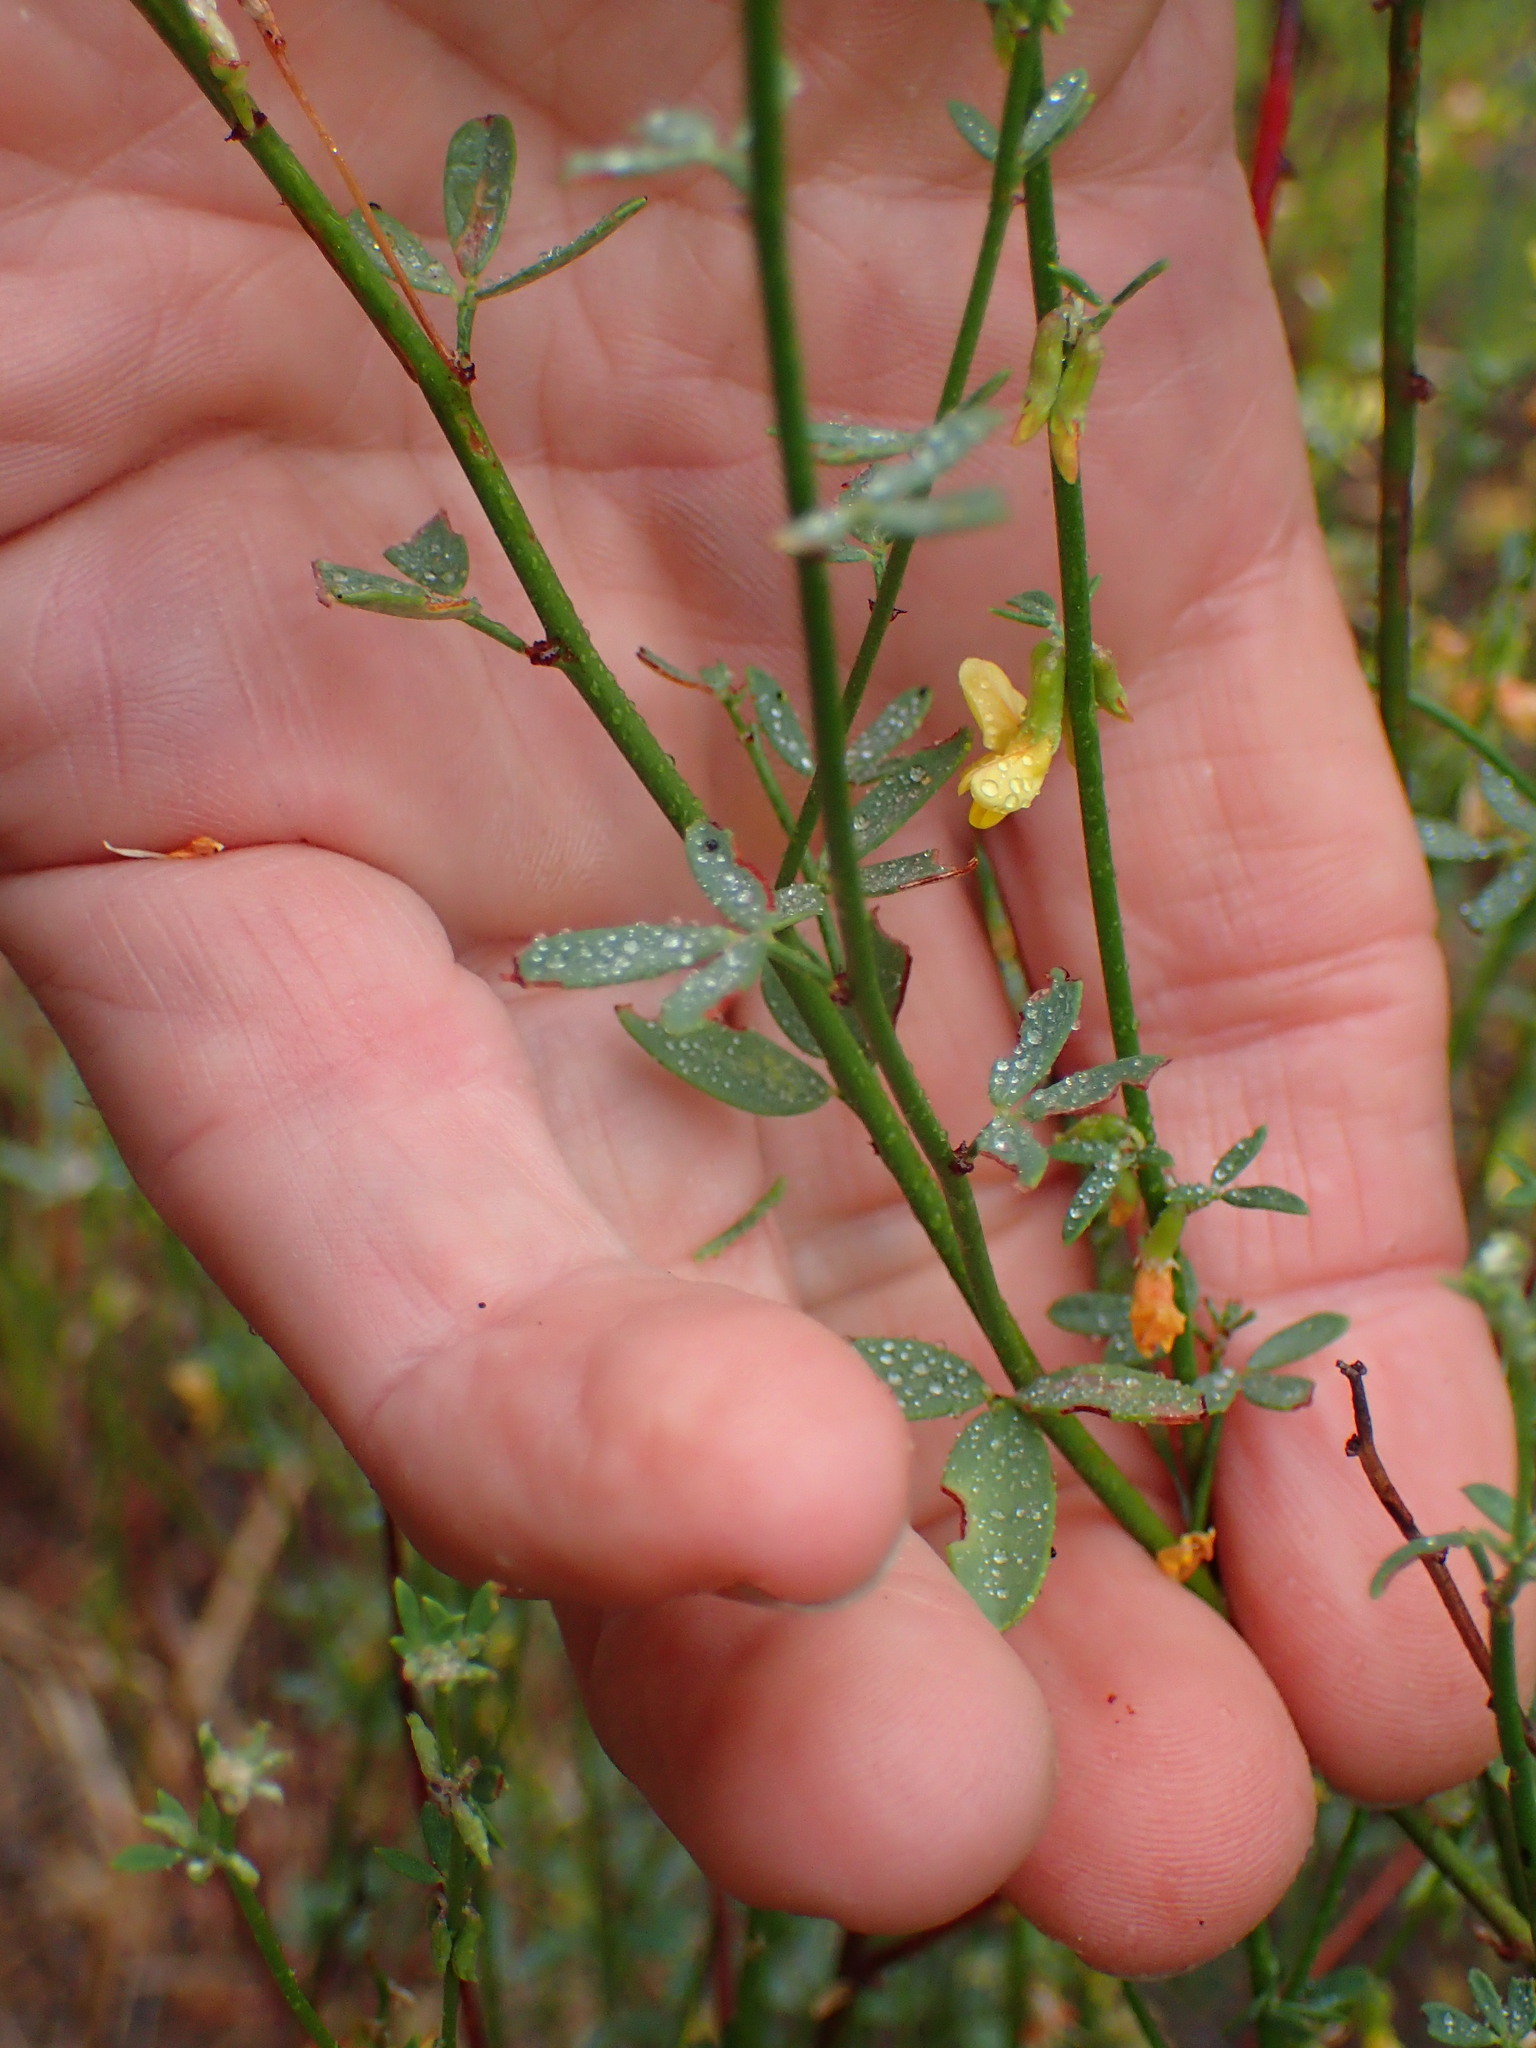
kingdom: Plantae
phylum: Tracheophyta
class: Magnoliopsida
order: Fabales
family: Fabaceae
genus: Acmispon
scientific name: Acmispon glaber
